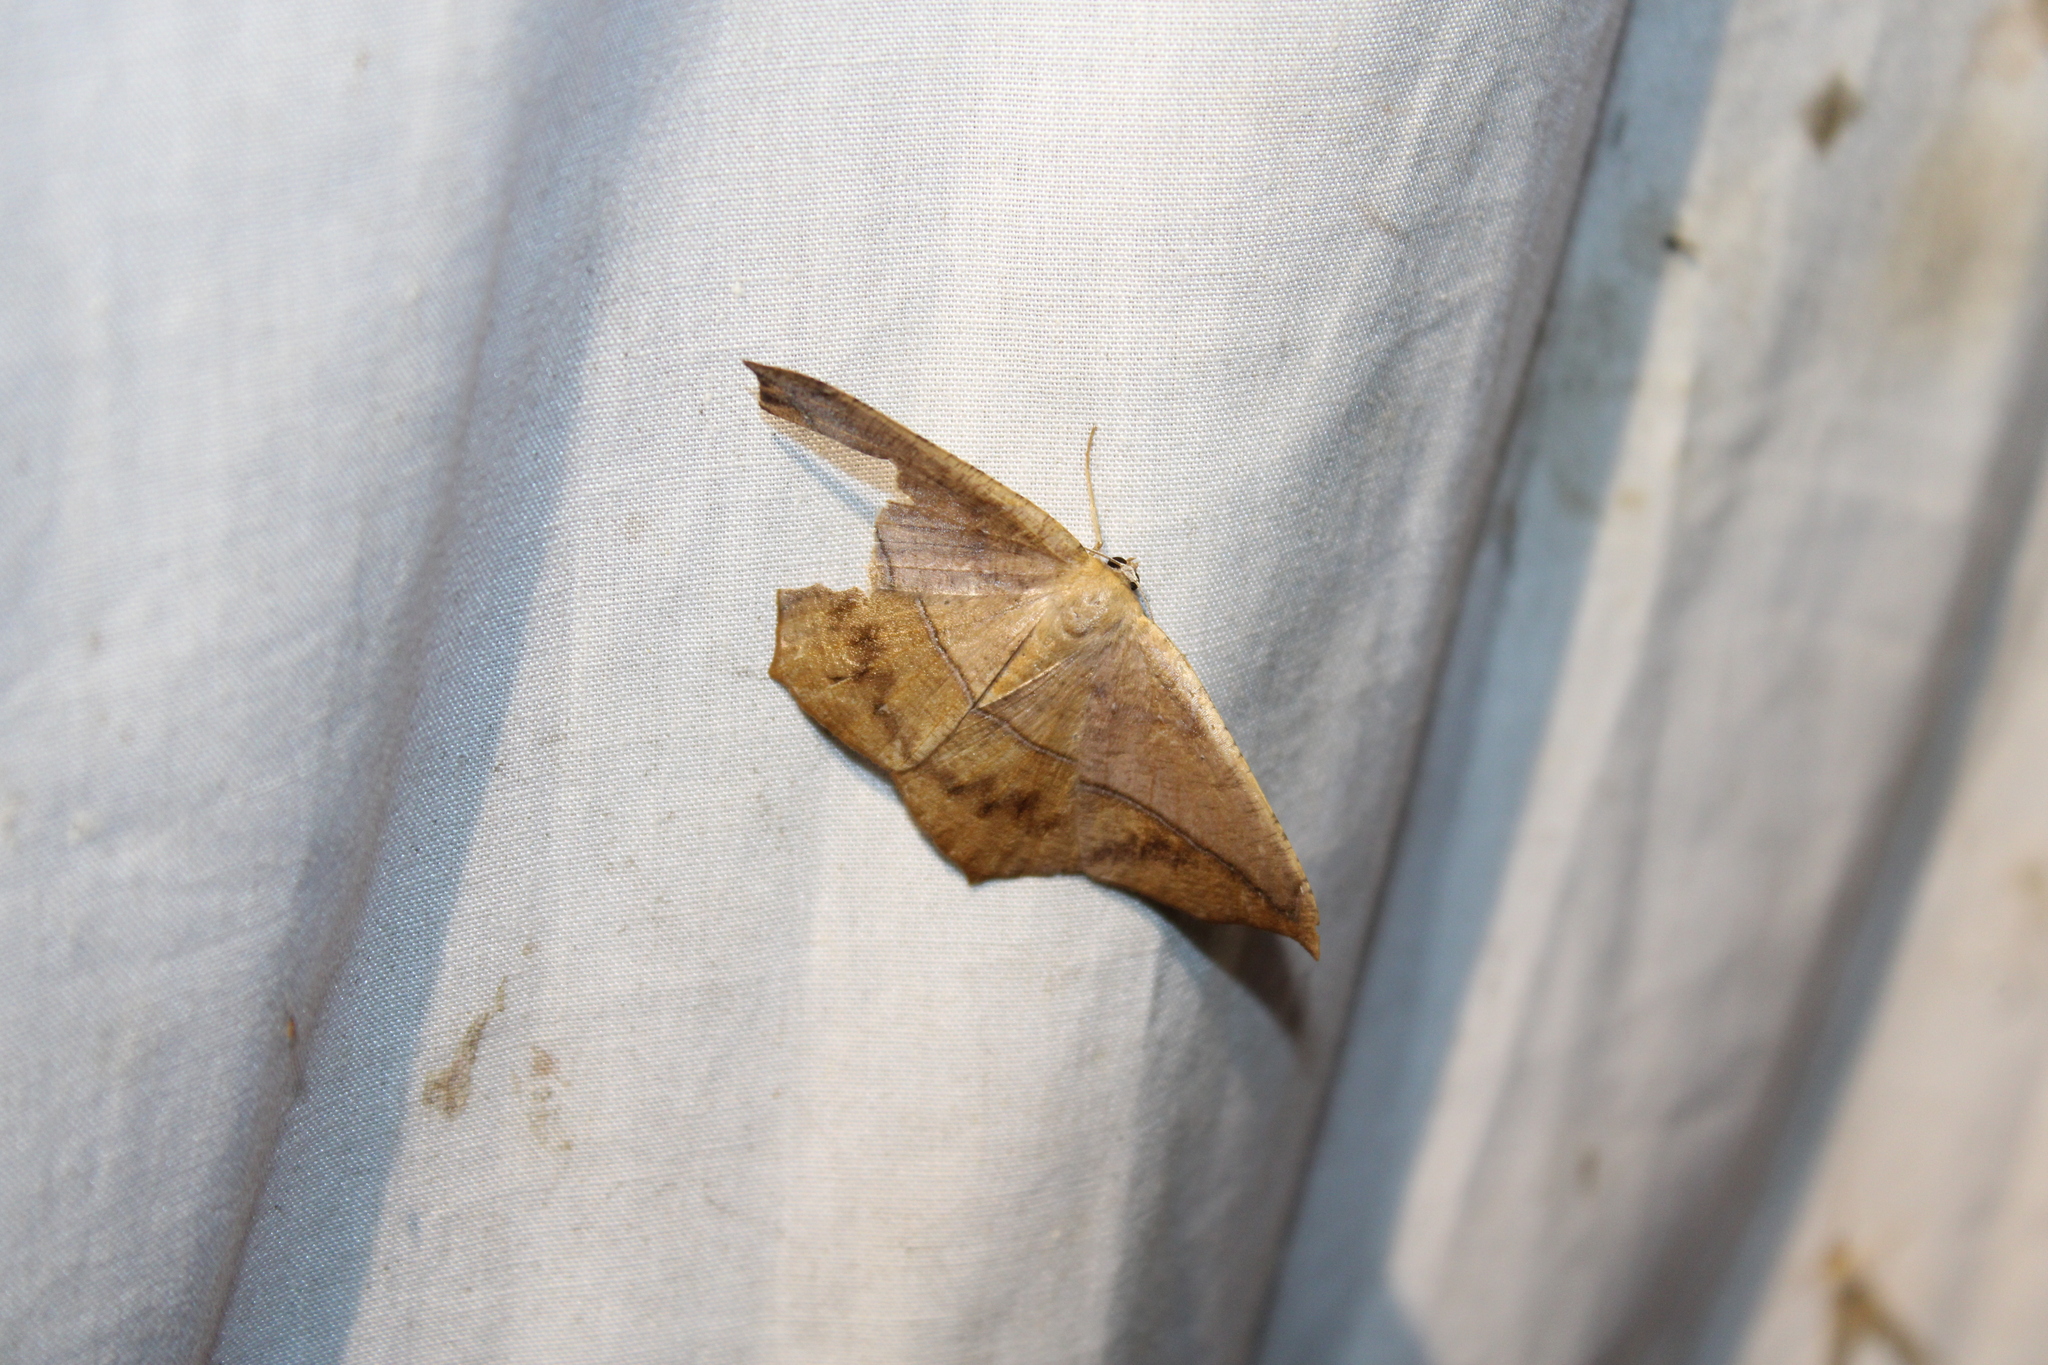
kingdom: Animalia
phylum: Arthropoda
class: Insecta
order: Lepidoptera
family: Geometridae
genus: Prochoerodes
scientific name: Prochoerodes lineola
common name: Large maple spanworm
